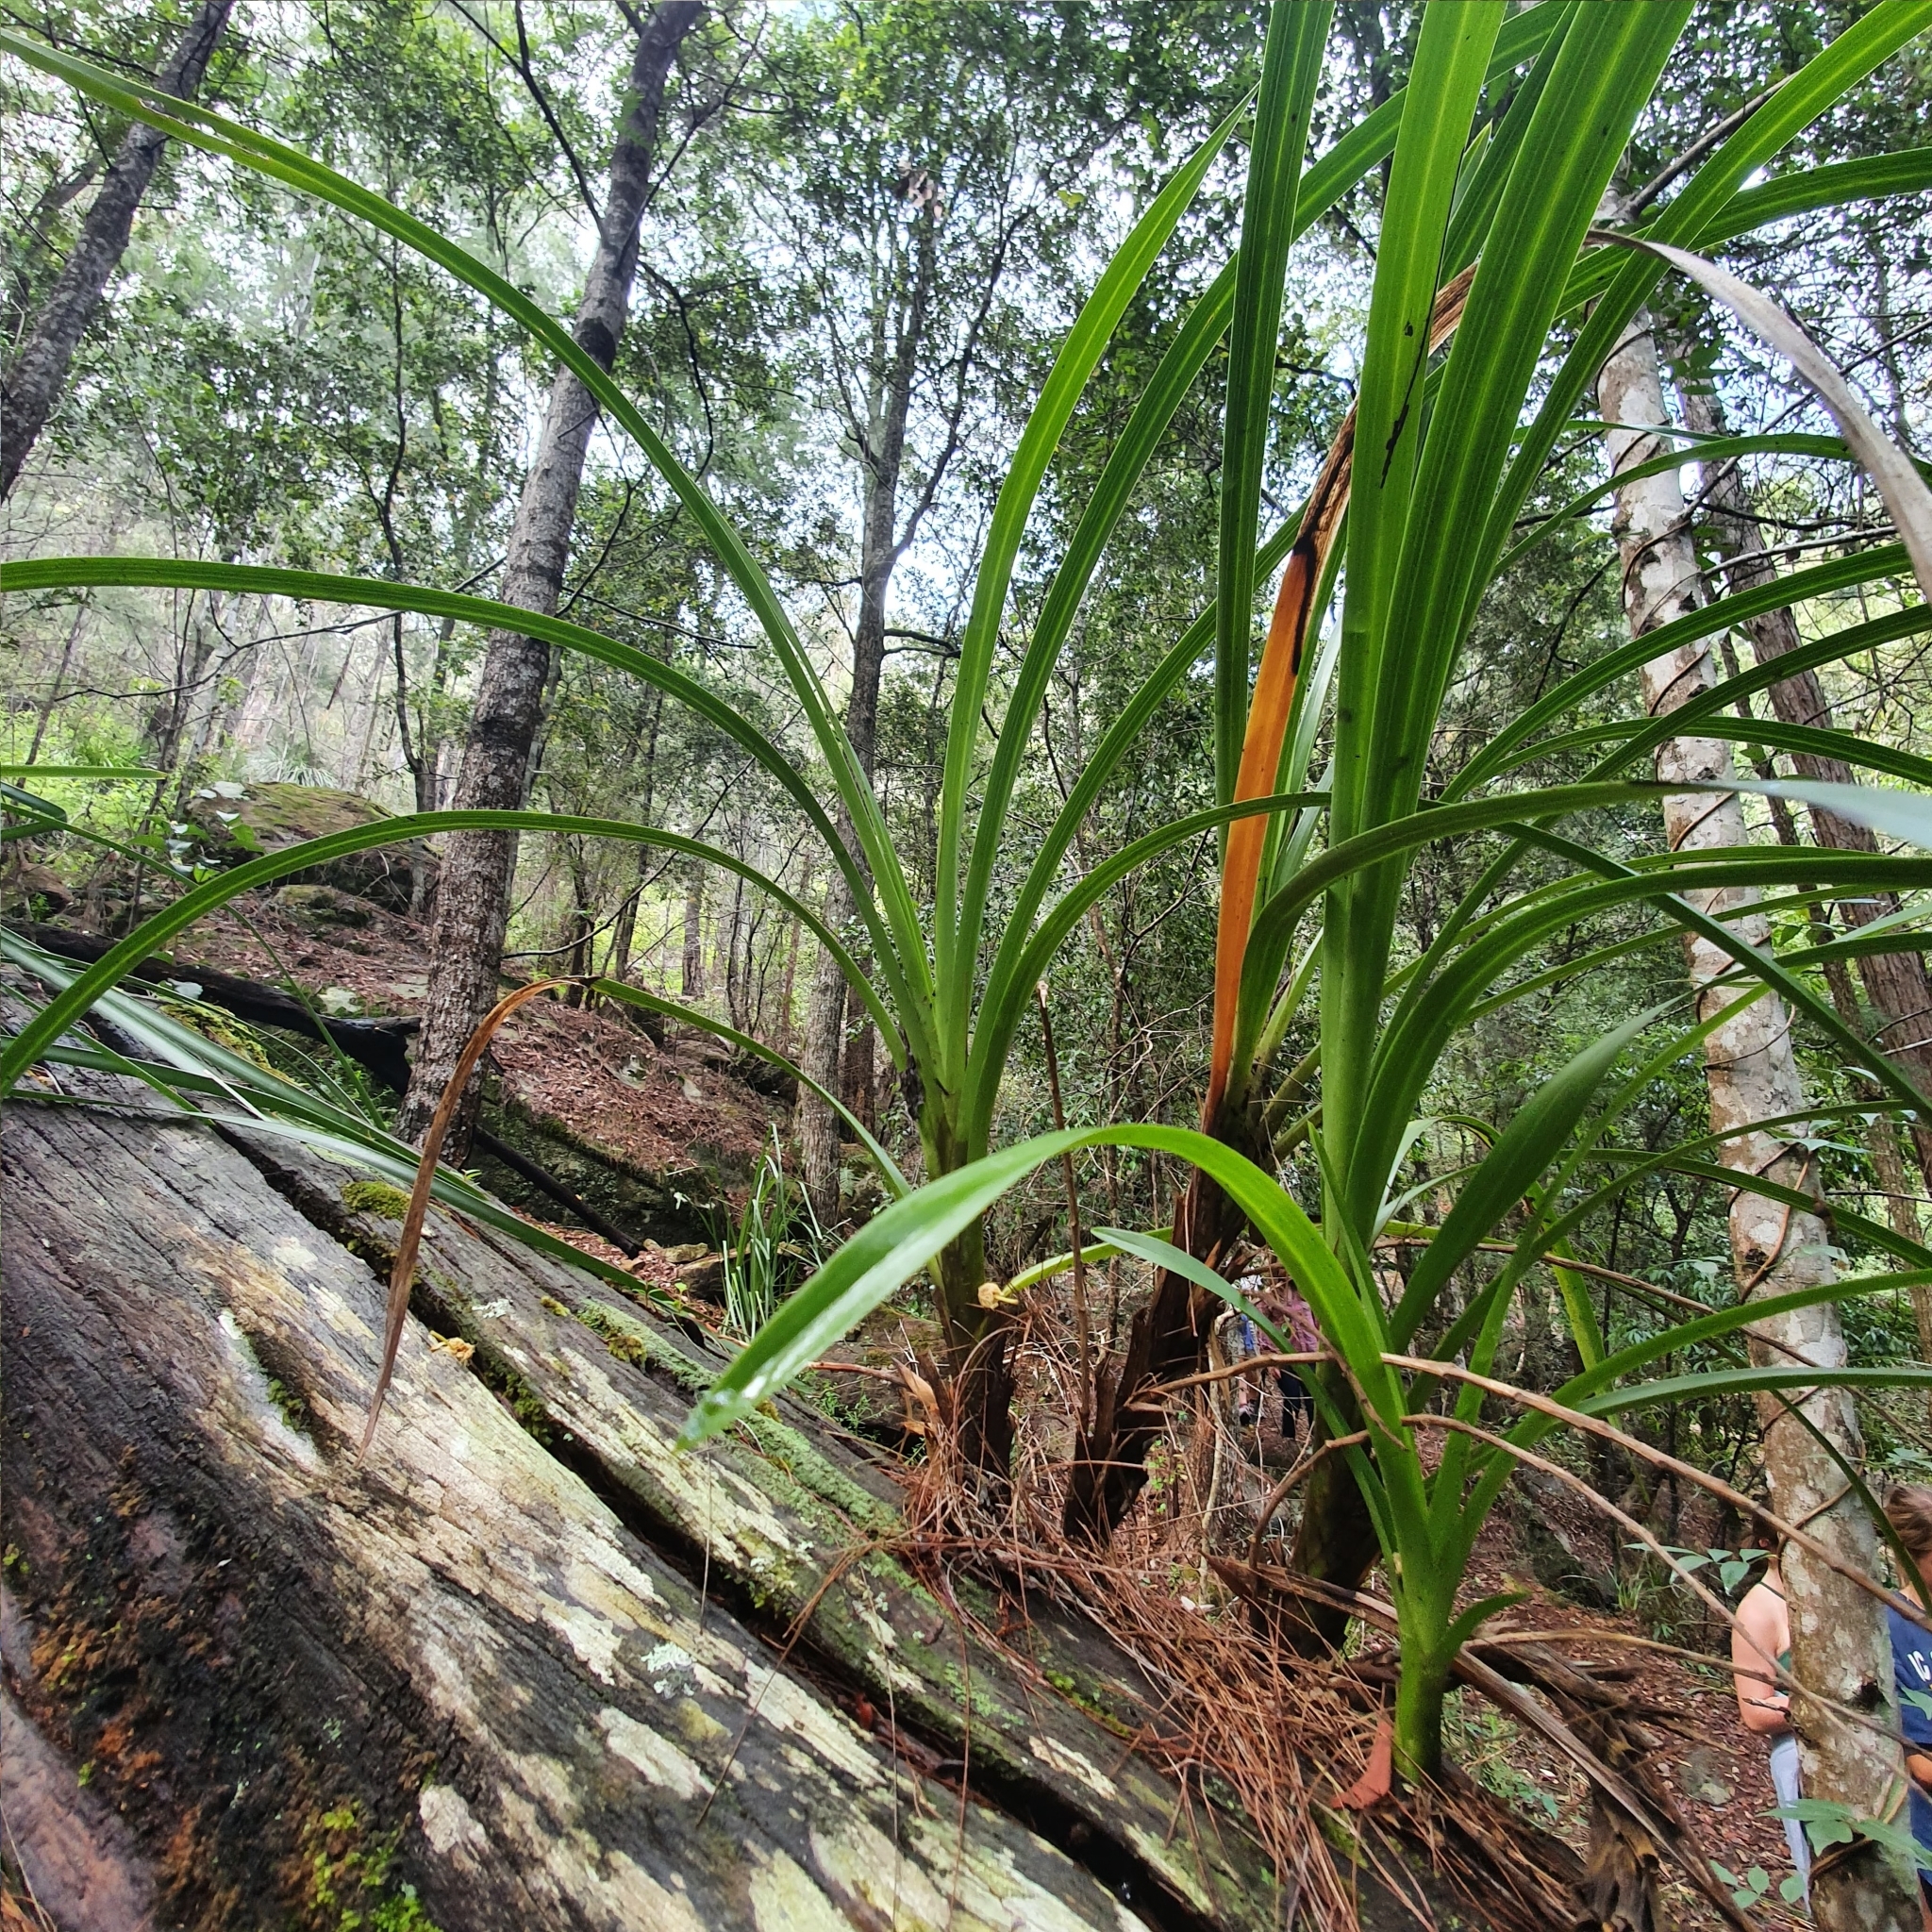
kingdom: Plantae
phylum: Tracheophyta
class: Liliopsida
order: Asparagales
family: Orchidaceae
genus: Cymbidium
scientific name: Cymbidium suave
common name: Snake orchid
